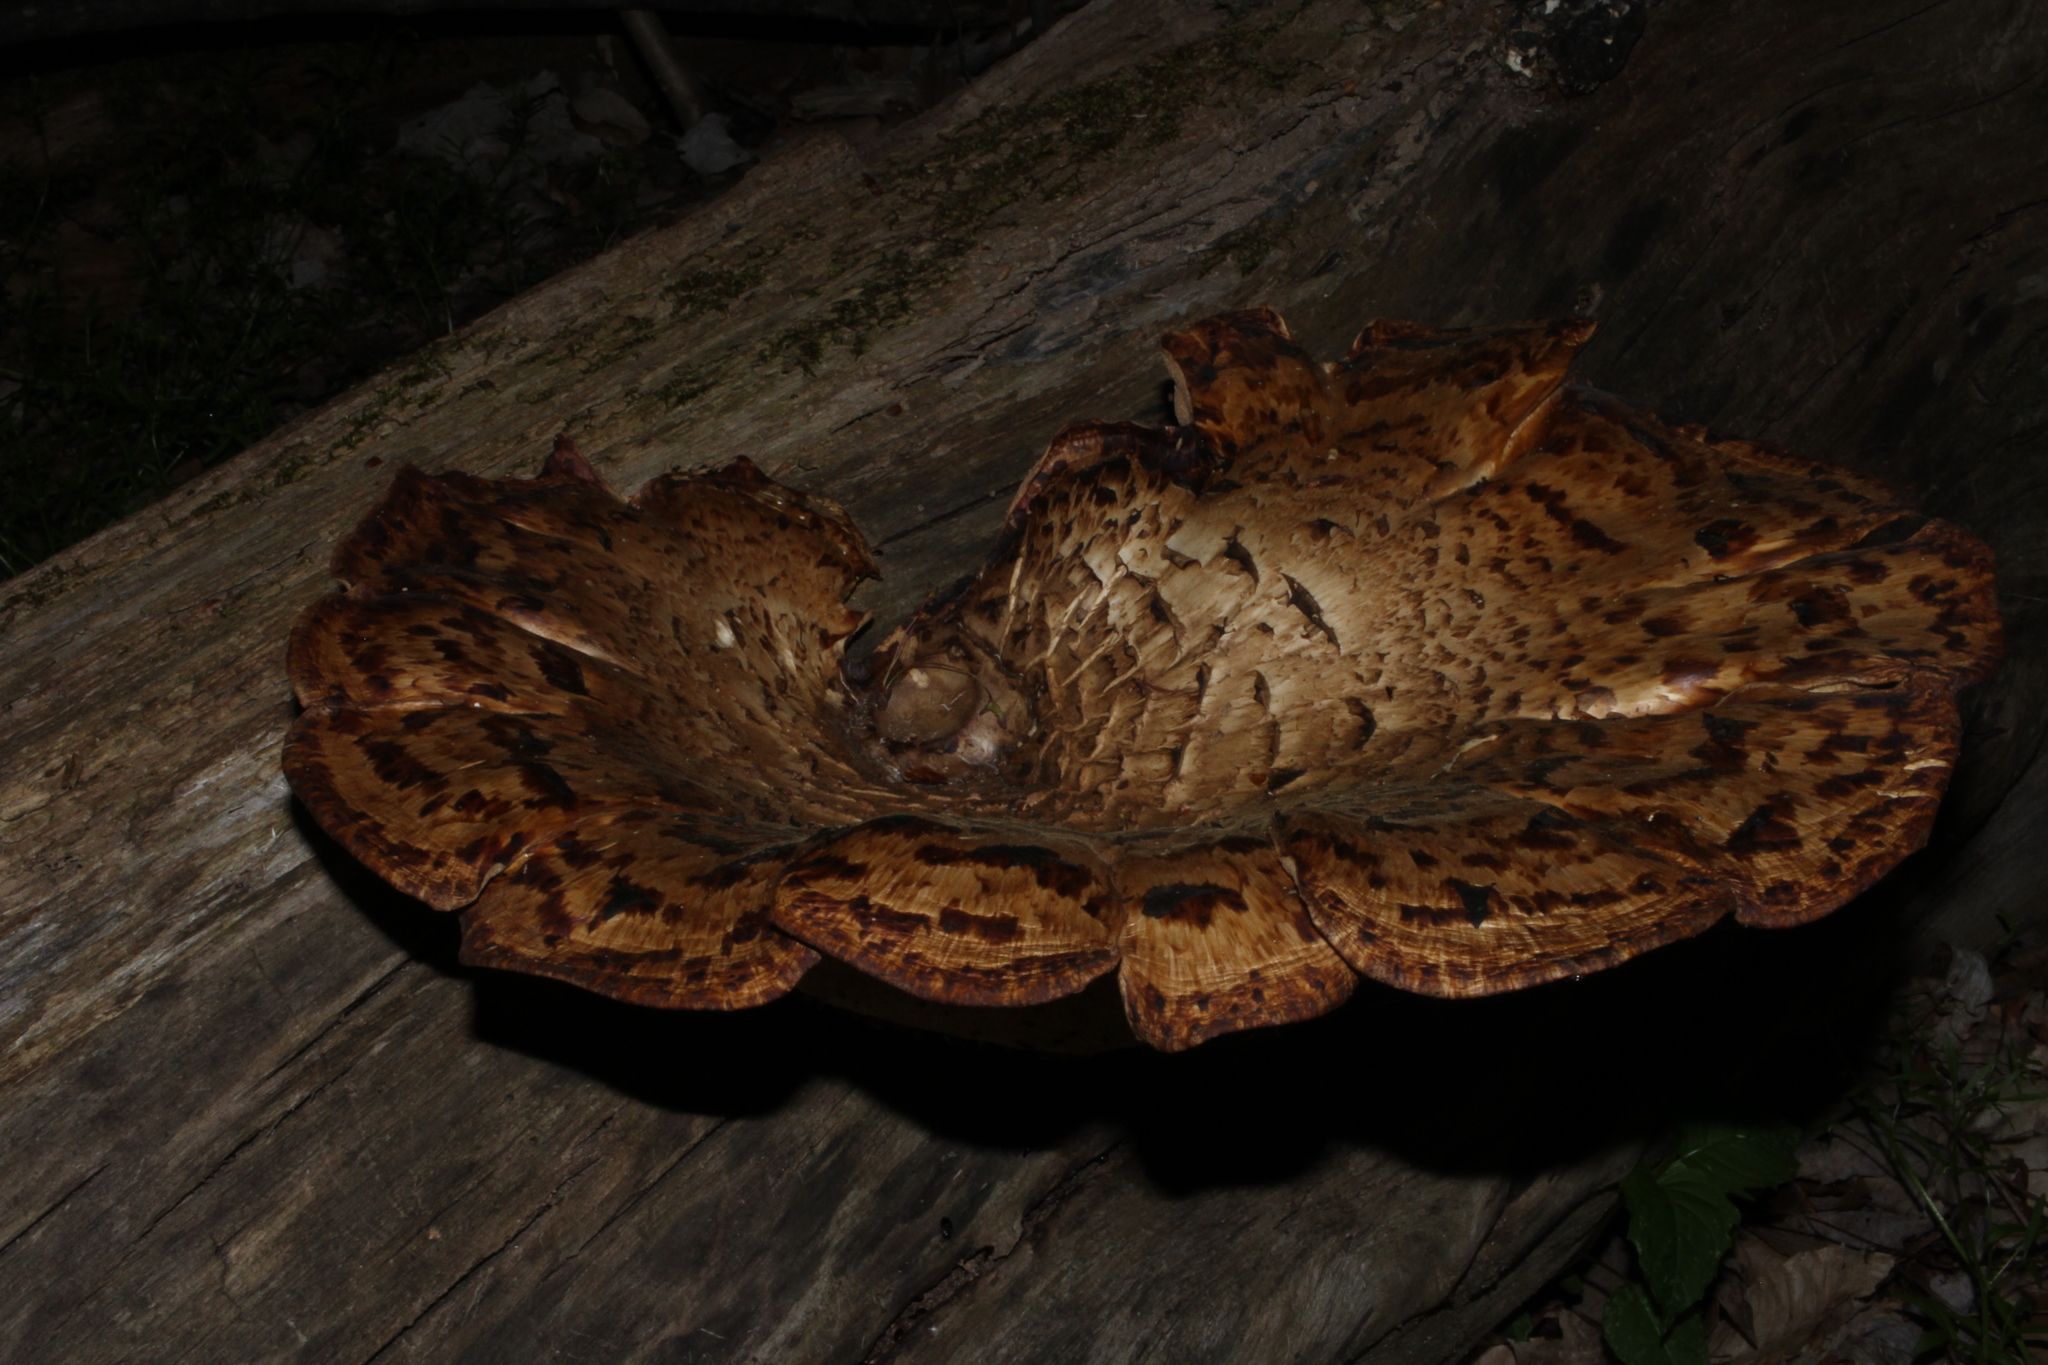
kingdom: Fungi
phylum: Basidiomycota
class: Agaricomycetes
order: Polyporales
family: Polyporaceae
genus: Cerioporus
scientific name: Cerioporus squamosus
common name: Dryad's saddle
